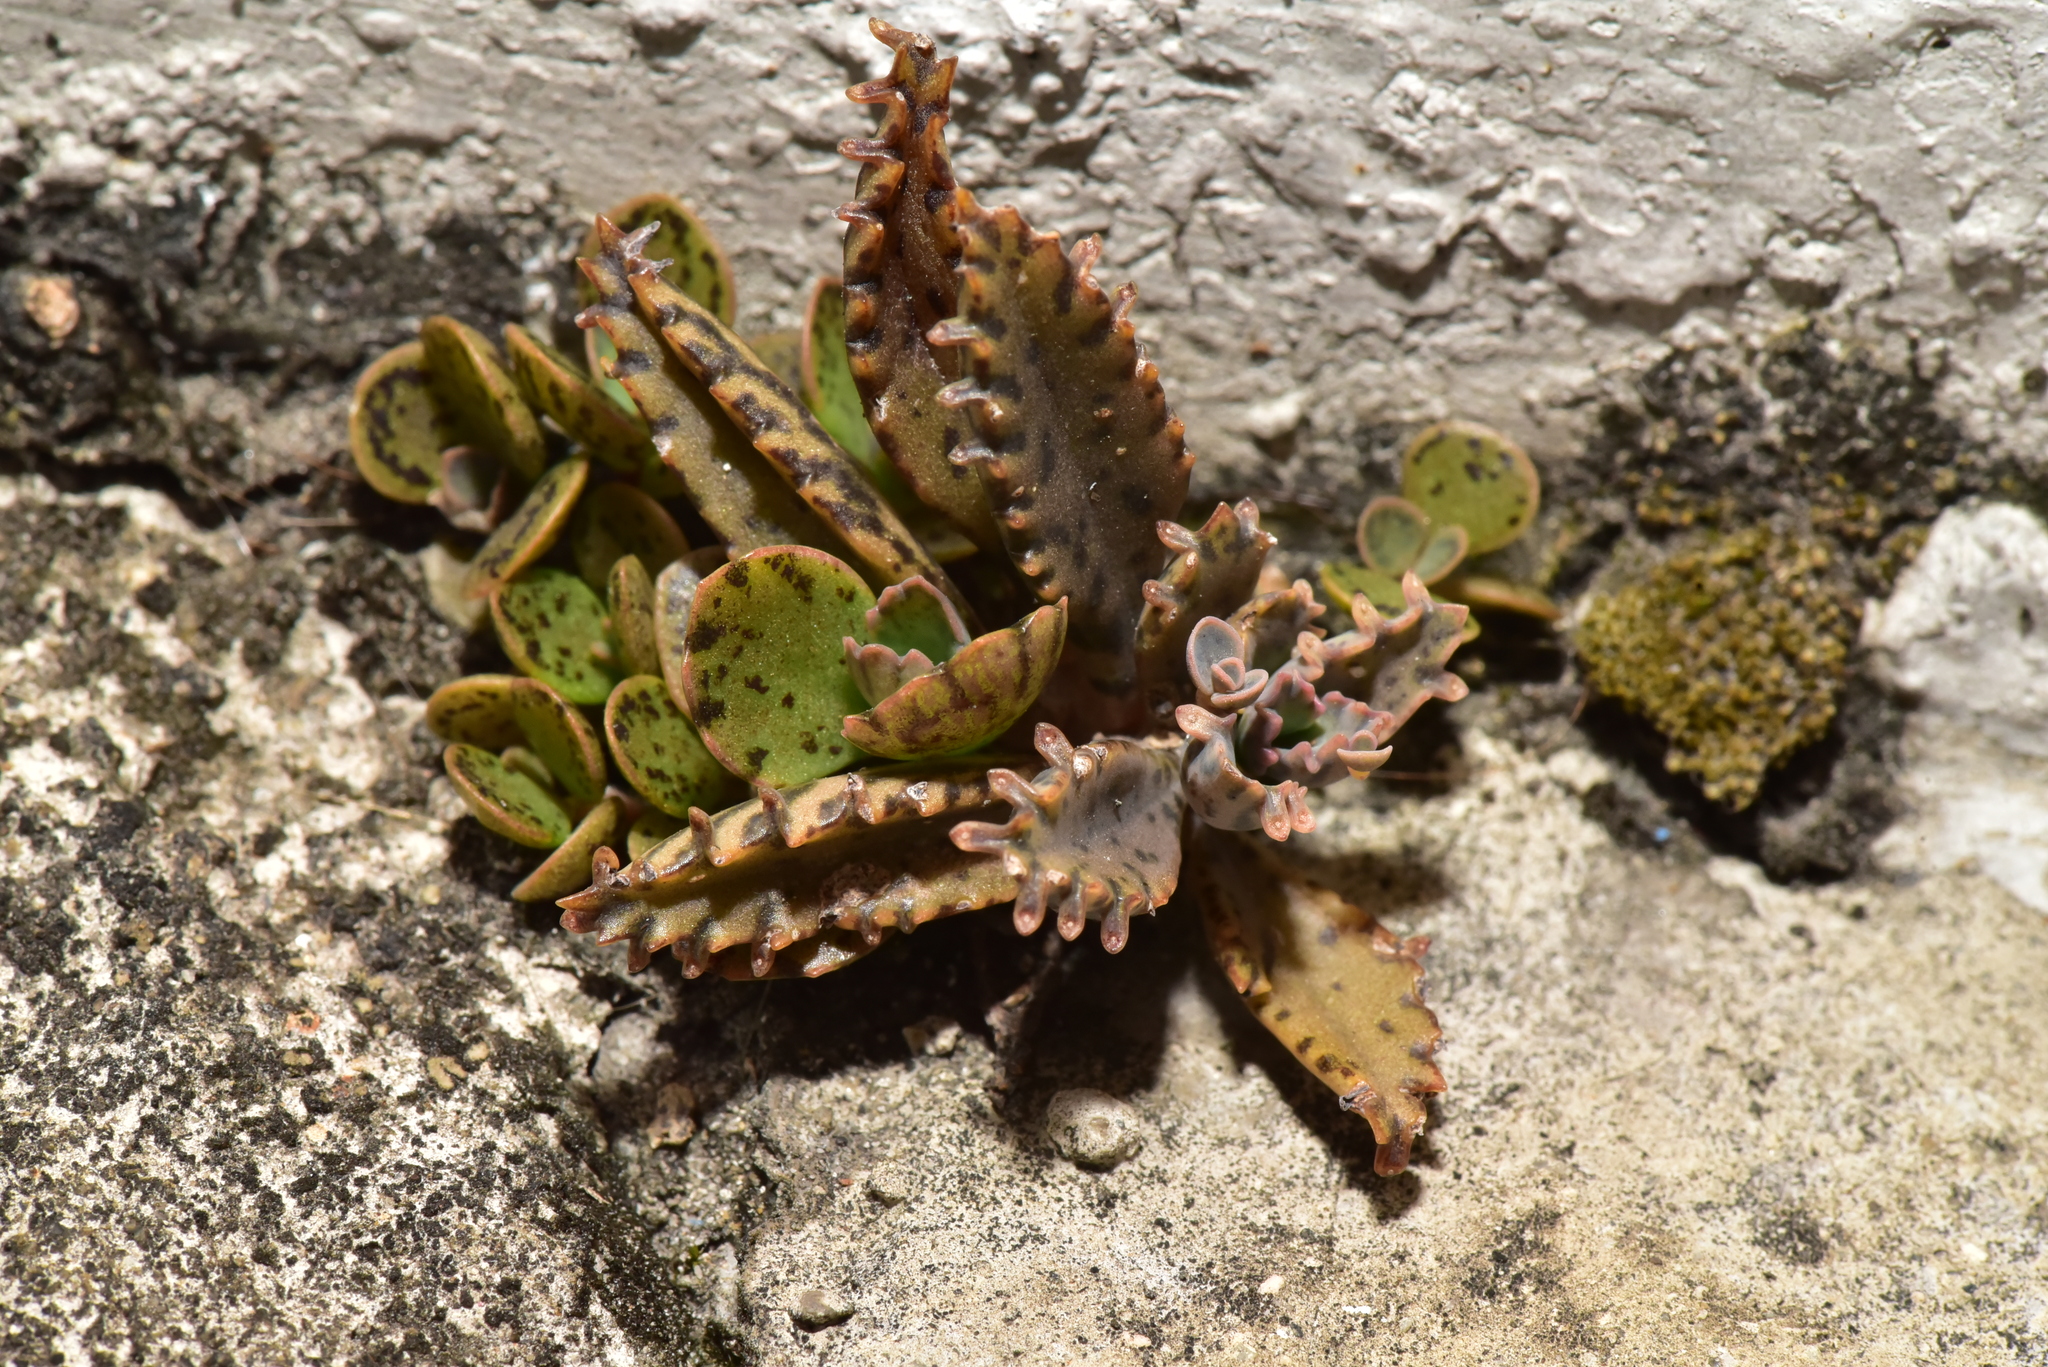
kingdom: Plantae
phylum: Tracheophyta
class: Magnoliopsida
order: Saxifragales
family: Crassulaceae
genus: Kalanchoe
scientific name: Kalanchoe houghtonii
